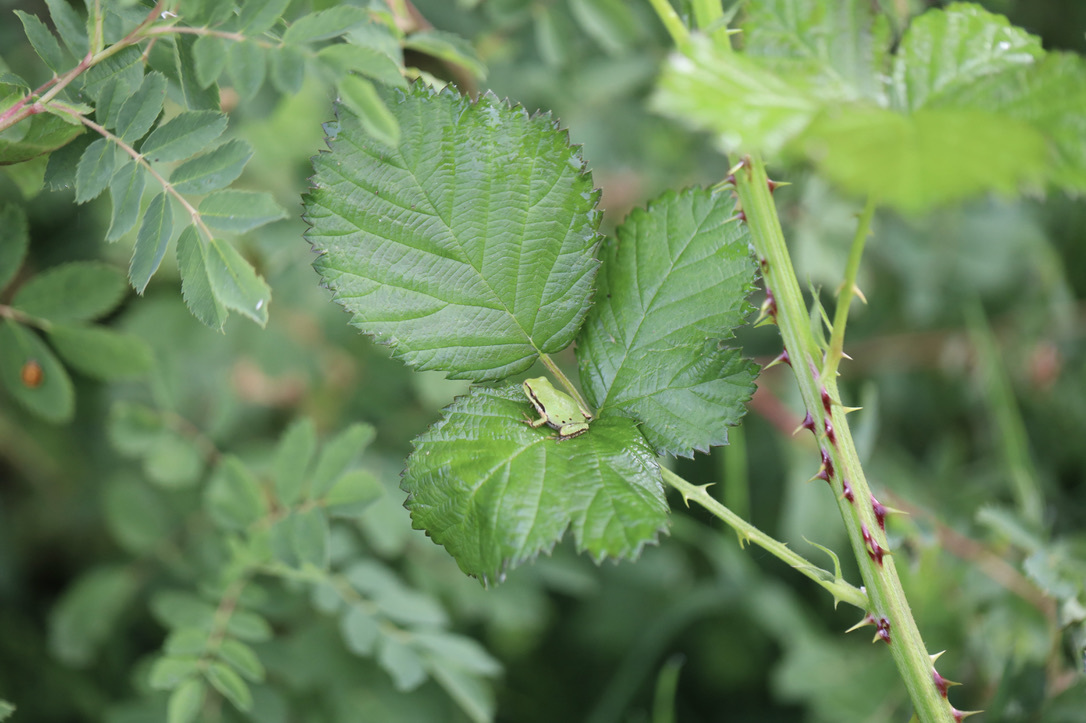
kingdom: Animalia
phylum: Chordata
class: Amphibia
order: Anura
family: Hylidae
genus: Pseudacris
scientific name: Pseudacris regilla
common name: Pacific chorus frog
